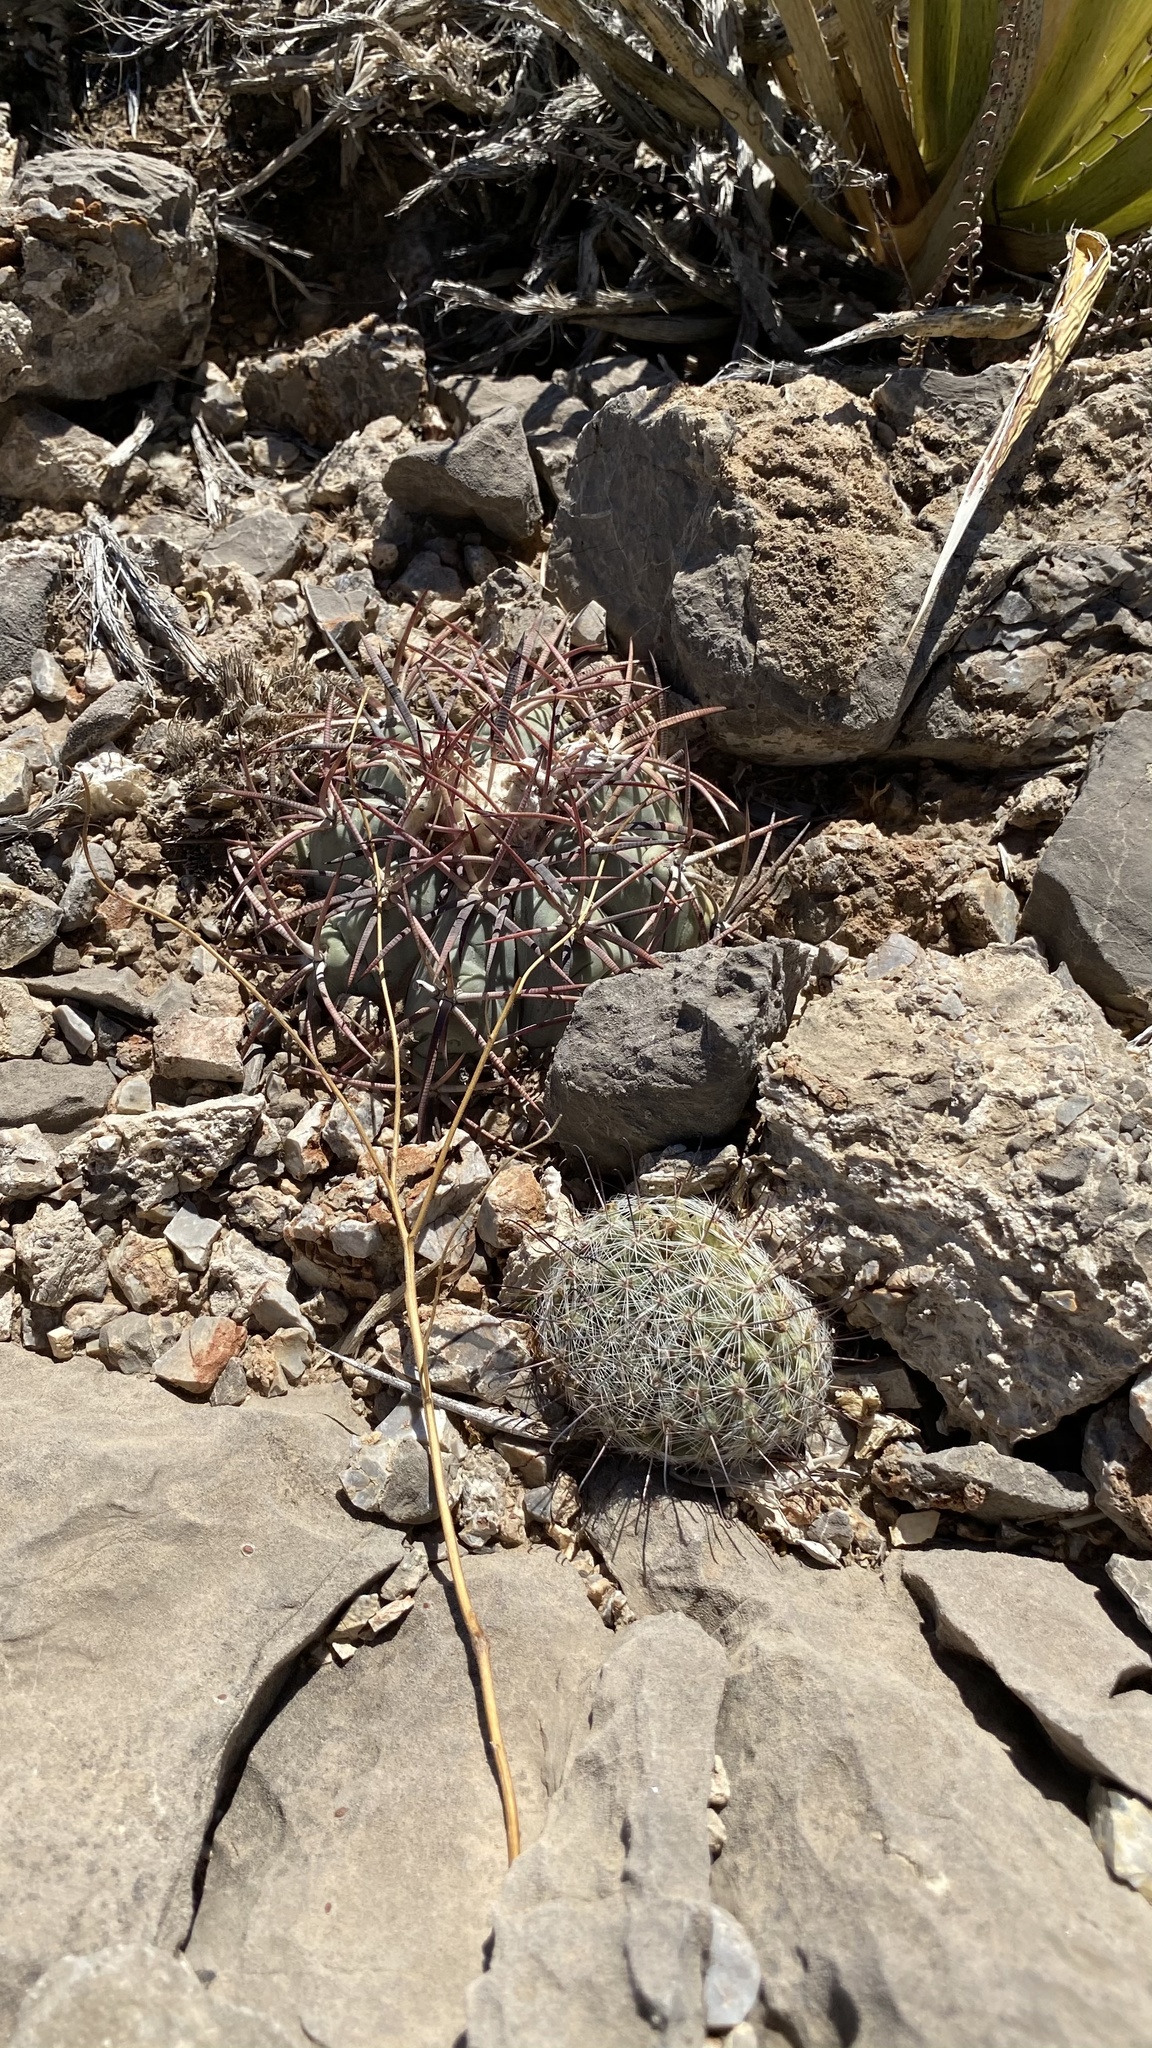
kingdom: Plantae
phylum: Tracheophyta
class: Magnoliopsida
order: Caryophyllales
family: Cactaceae
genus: Echinocactus
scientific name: Echinocactus horizonthalonius
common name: Devilshead
